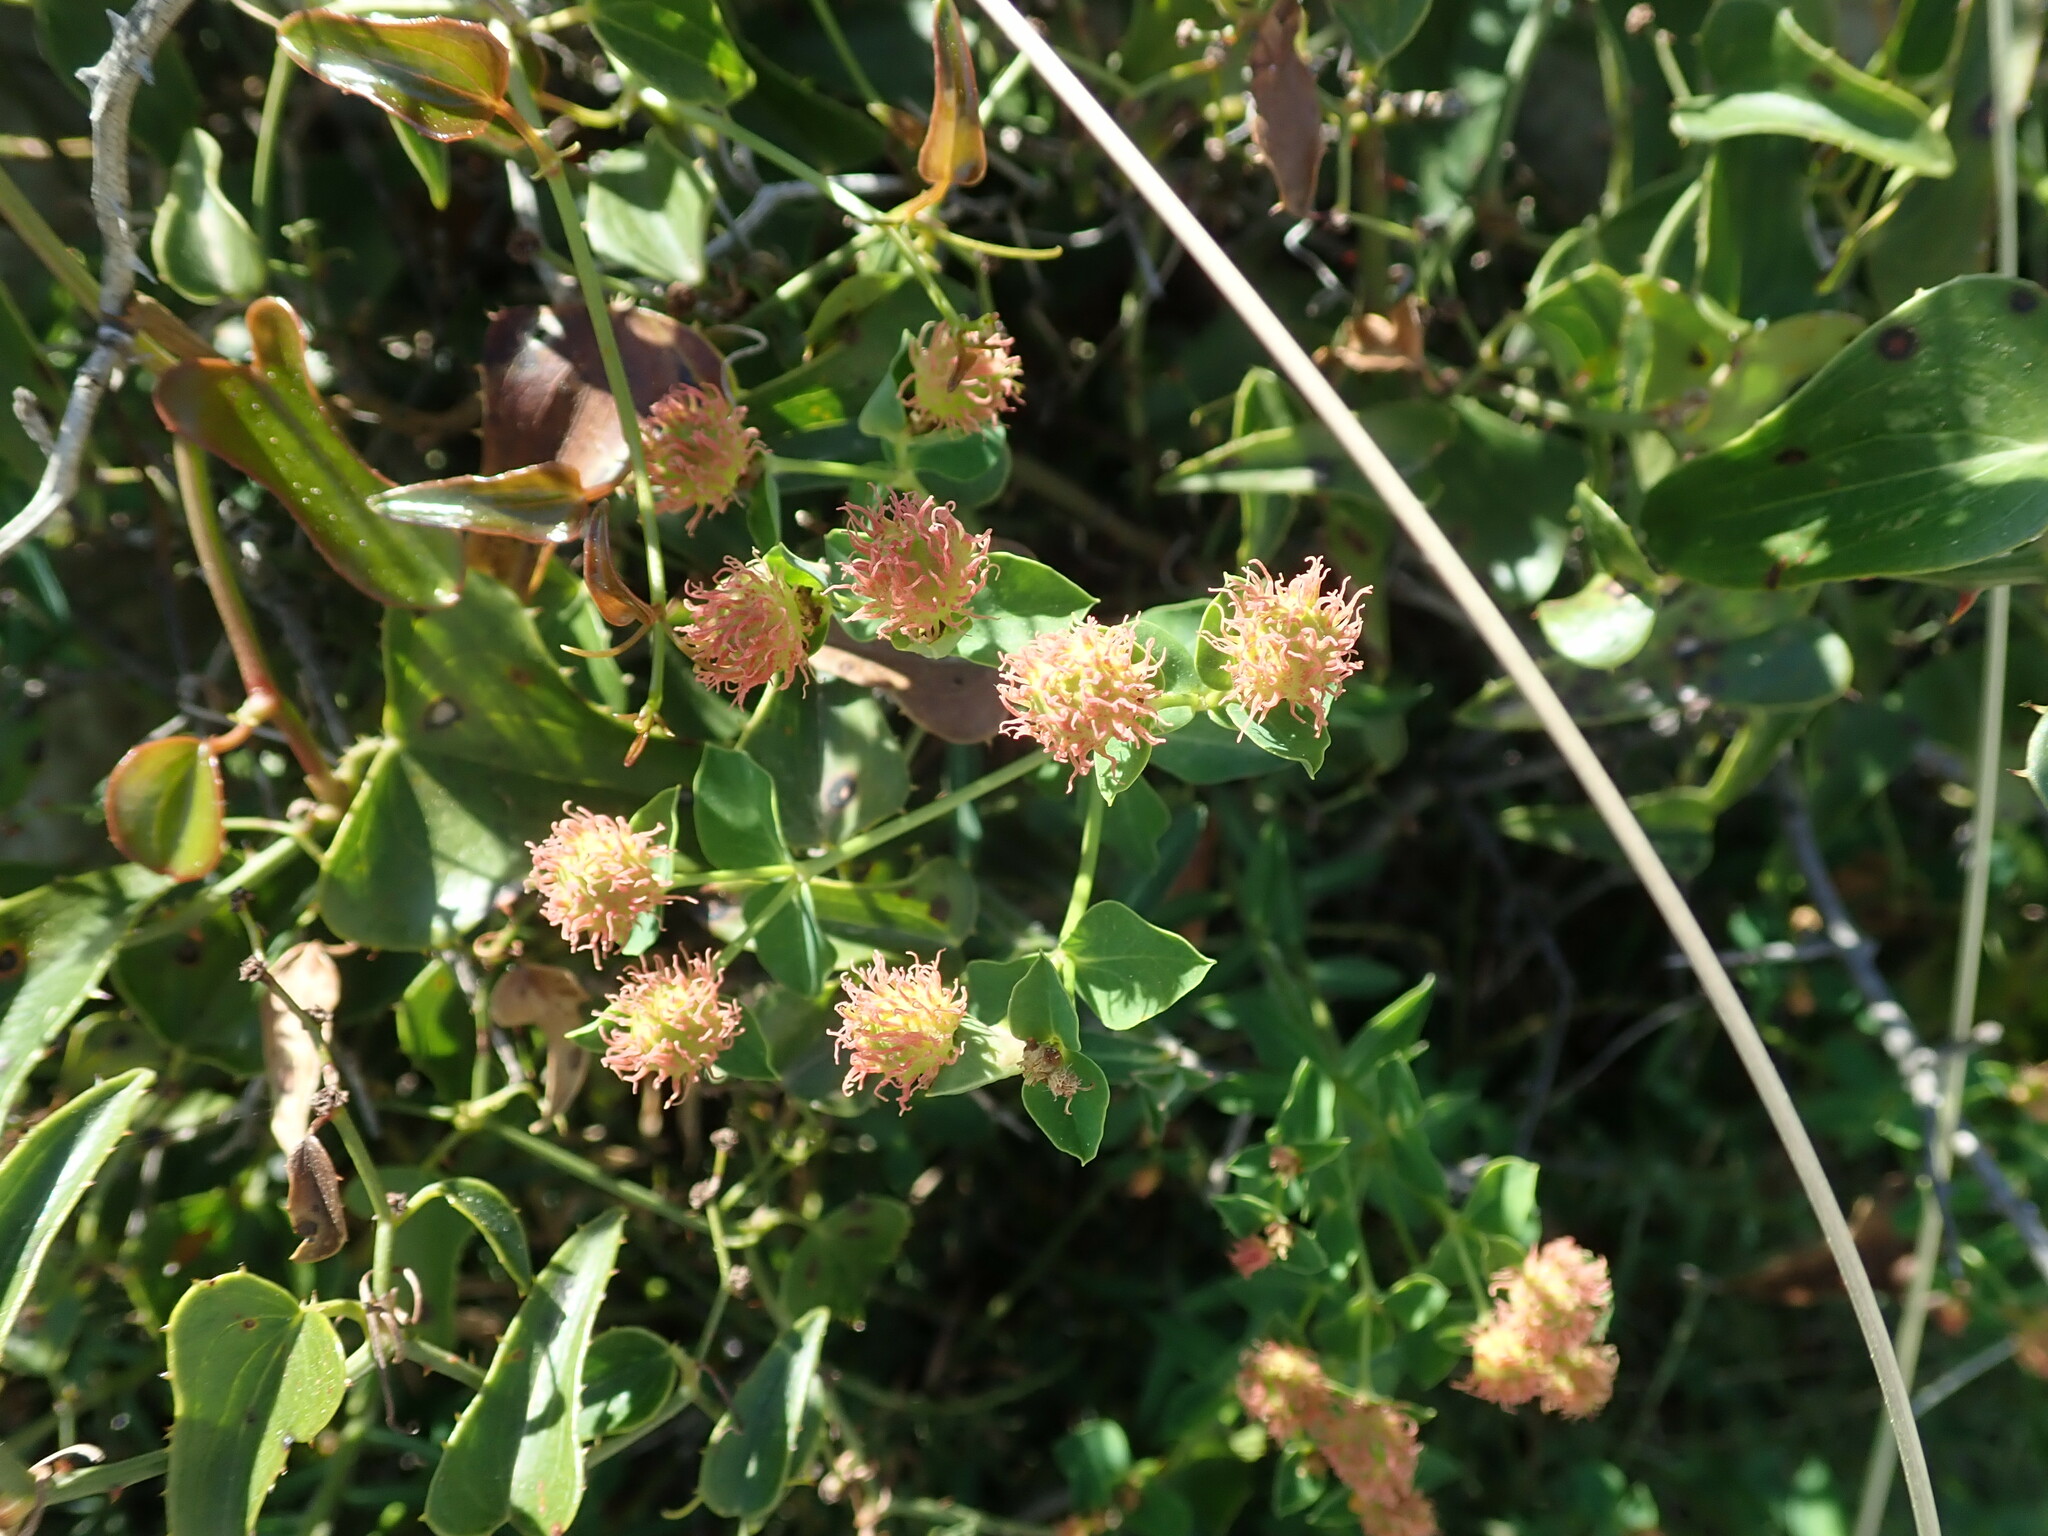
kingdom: Plantae
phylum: Tracheophyta
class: Magnoliopsida
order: Malpighiales
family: Euphorbiaceae
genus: Euphorbia
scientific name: Euphorbia fragifera
